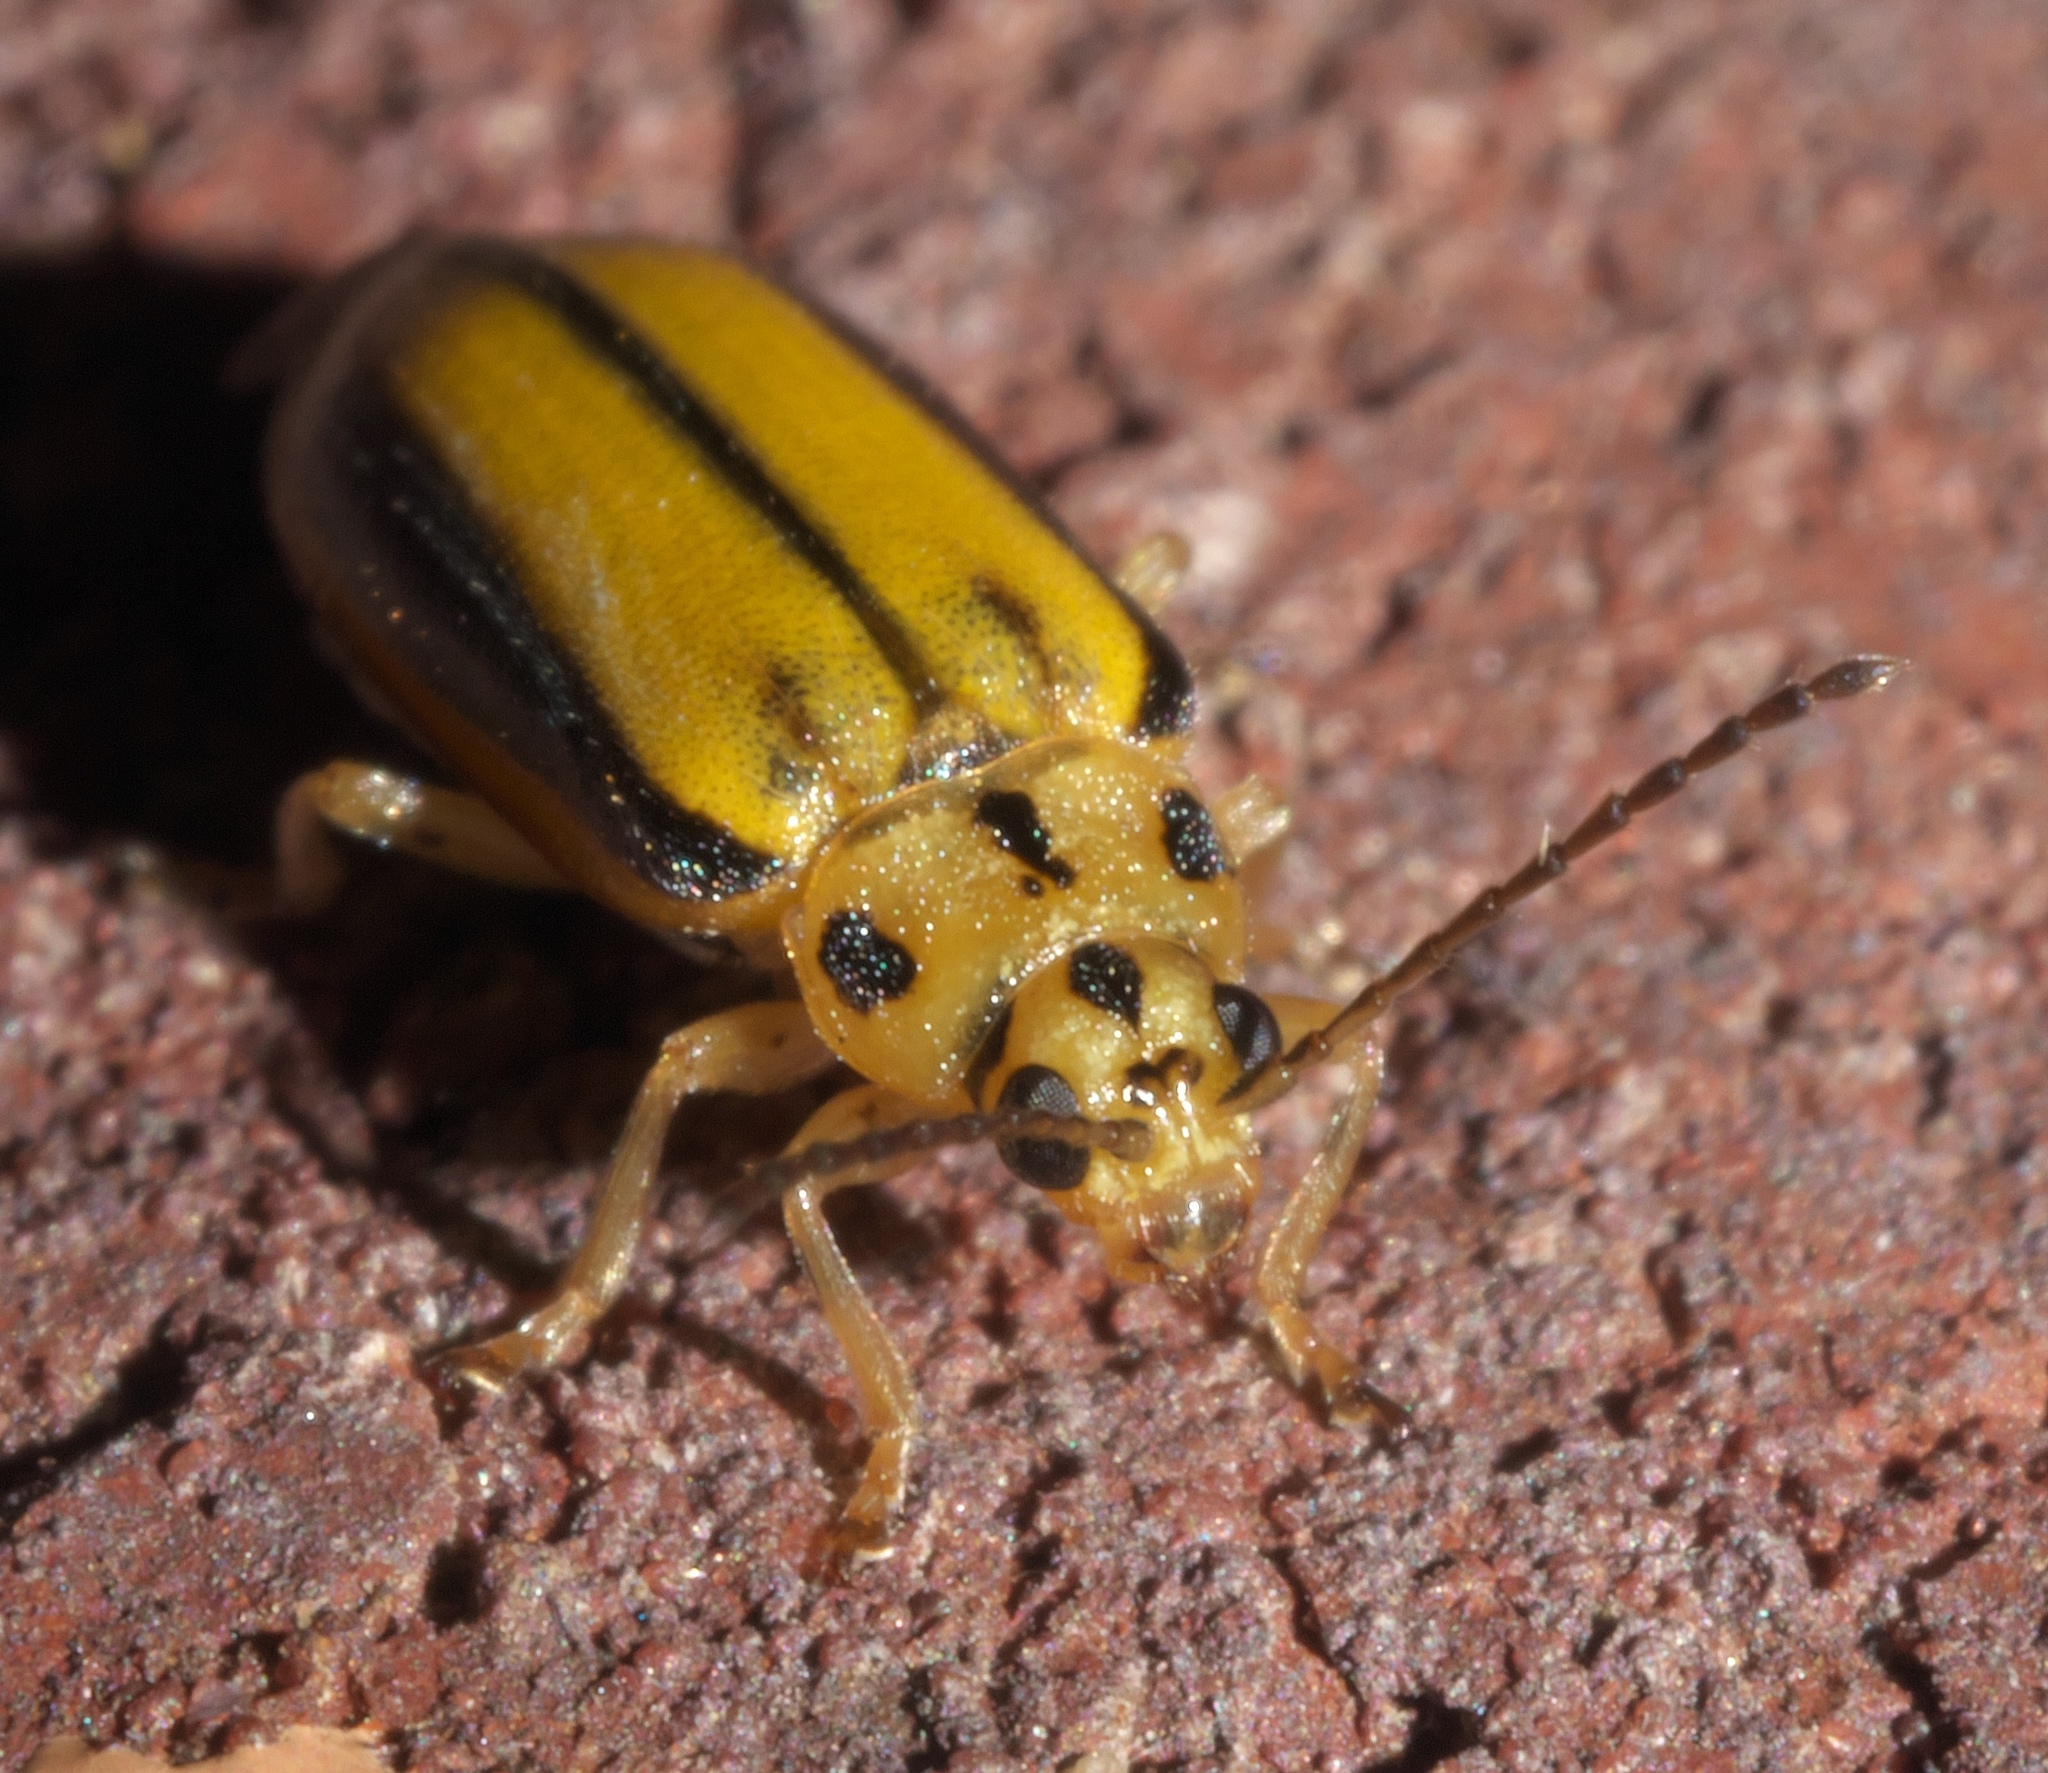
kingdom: Animalia
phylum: Arthropoda
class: Insecta
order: Coleoptera
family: Chrysomelidae
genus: Xanthogaleruca
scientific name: Xanthogaleruca luteola
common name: Elm leaf beetle
